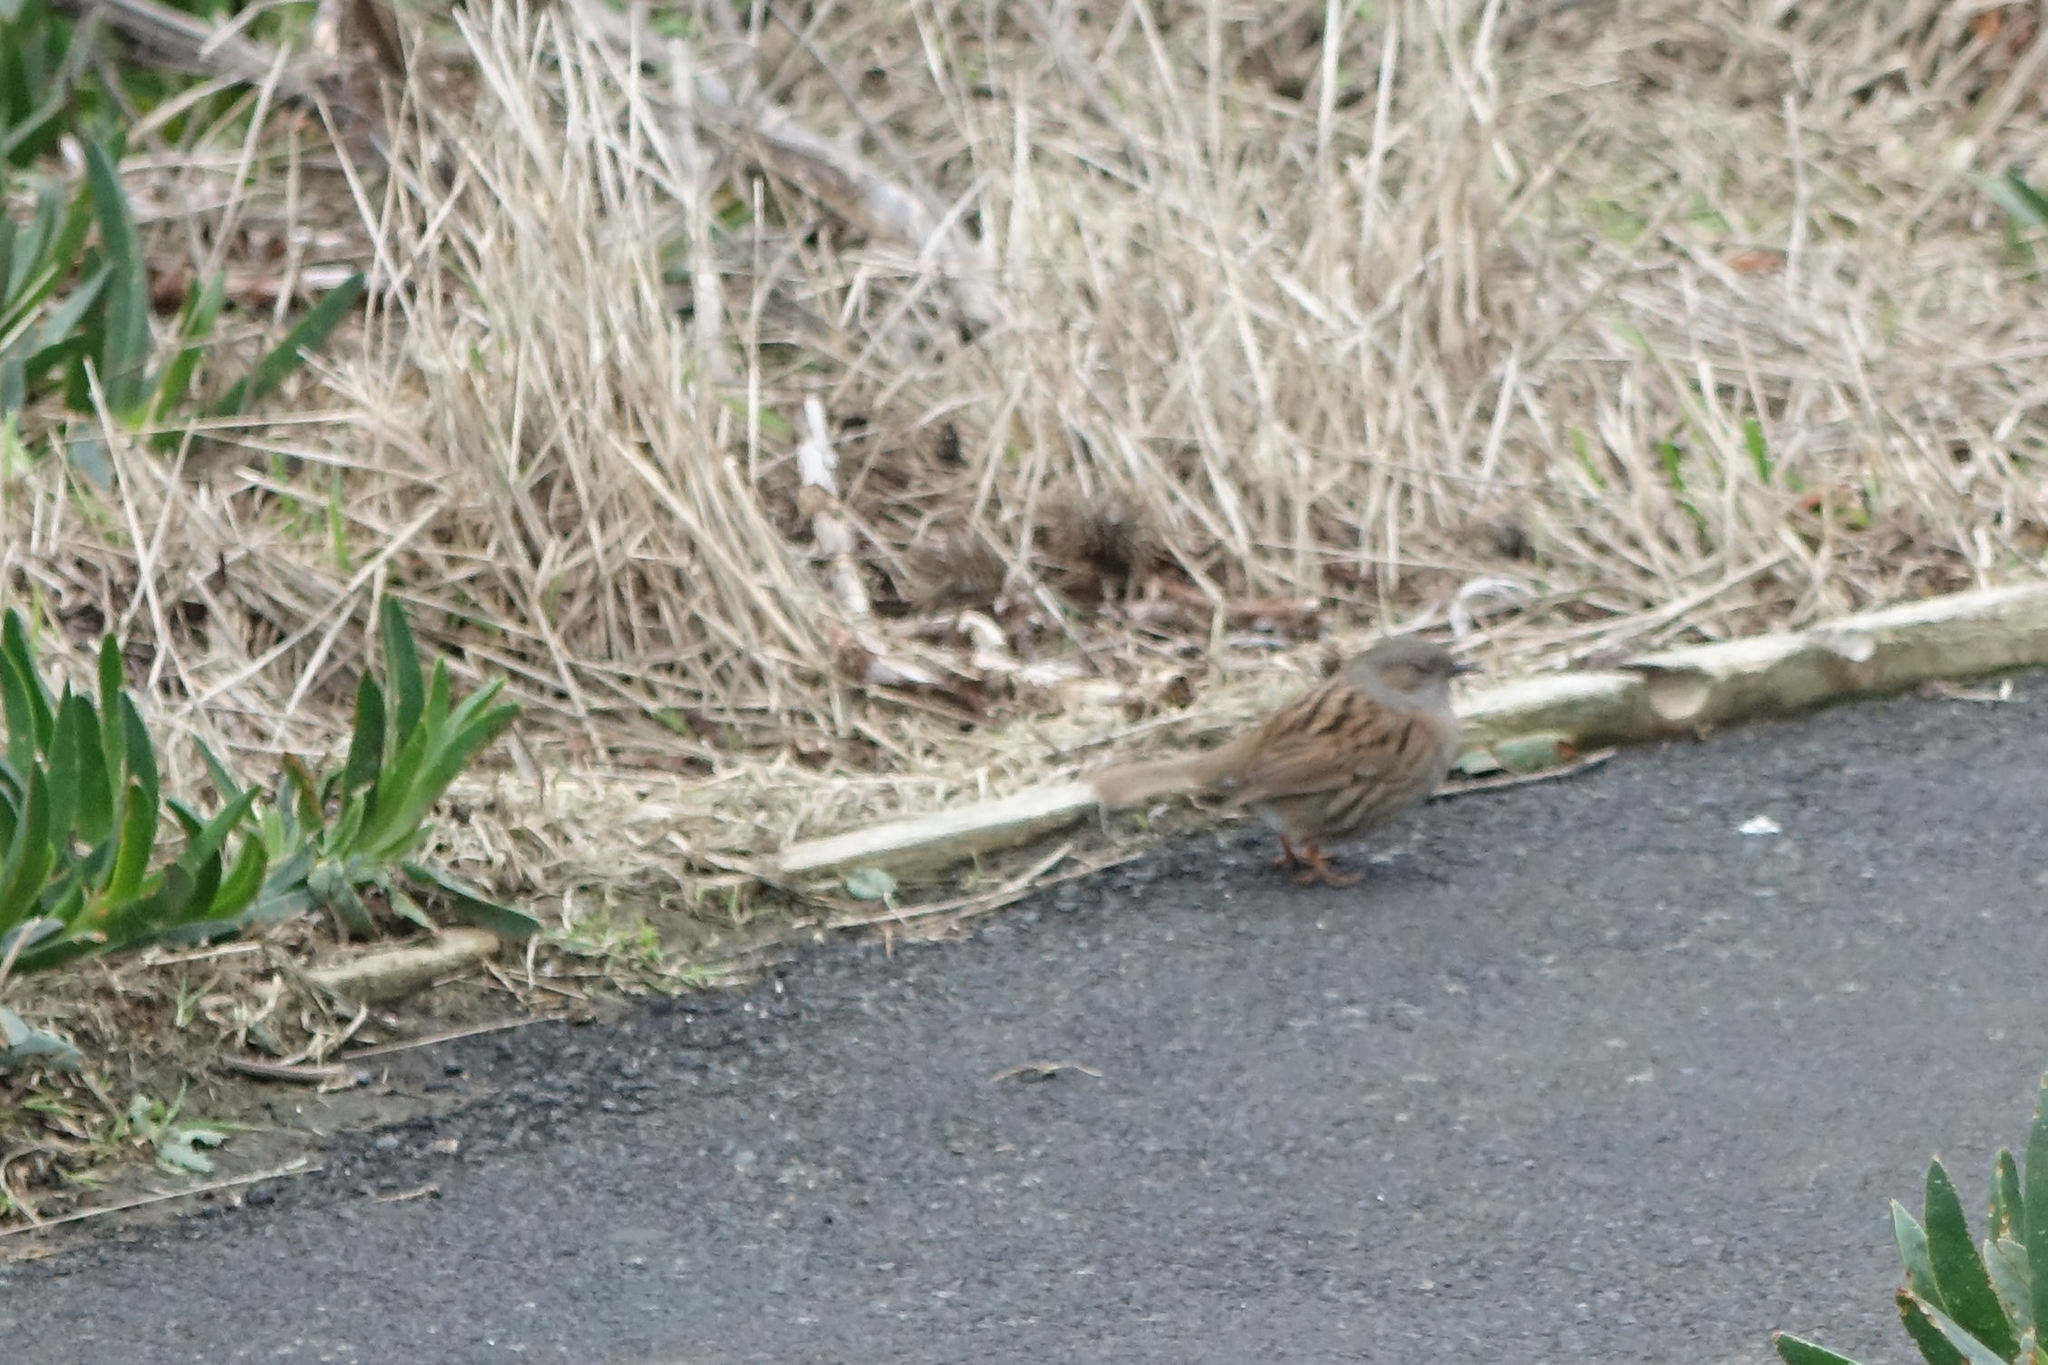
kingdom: Animalia
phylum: Chordata
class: Aves
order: Passeriformes
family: Prunellidae
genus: Prunella
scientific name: Prunella modularis
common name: Dunnock
